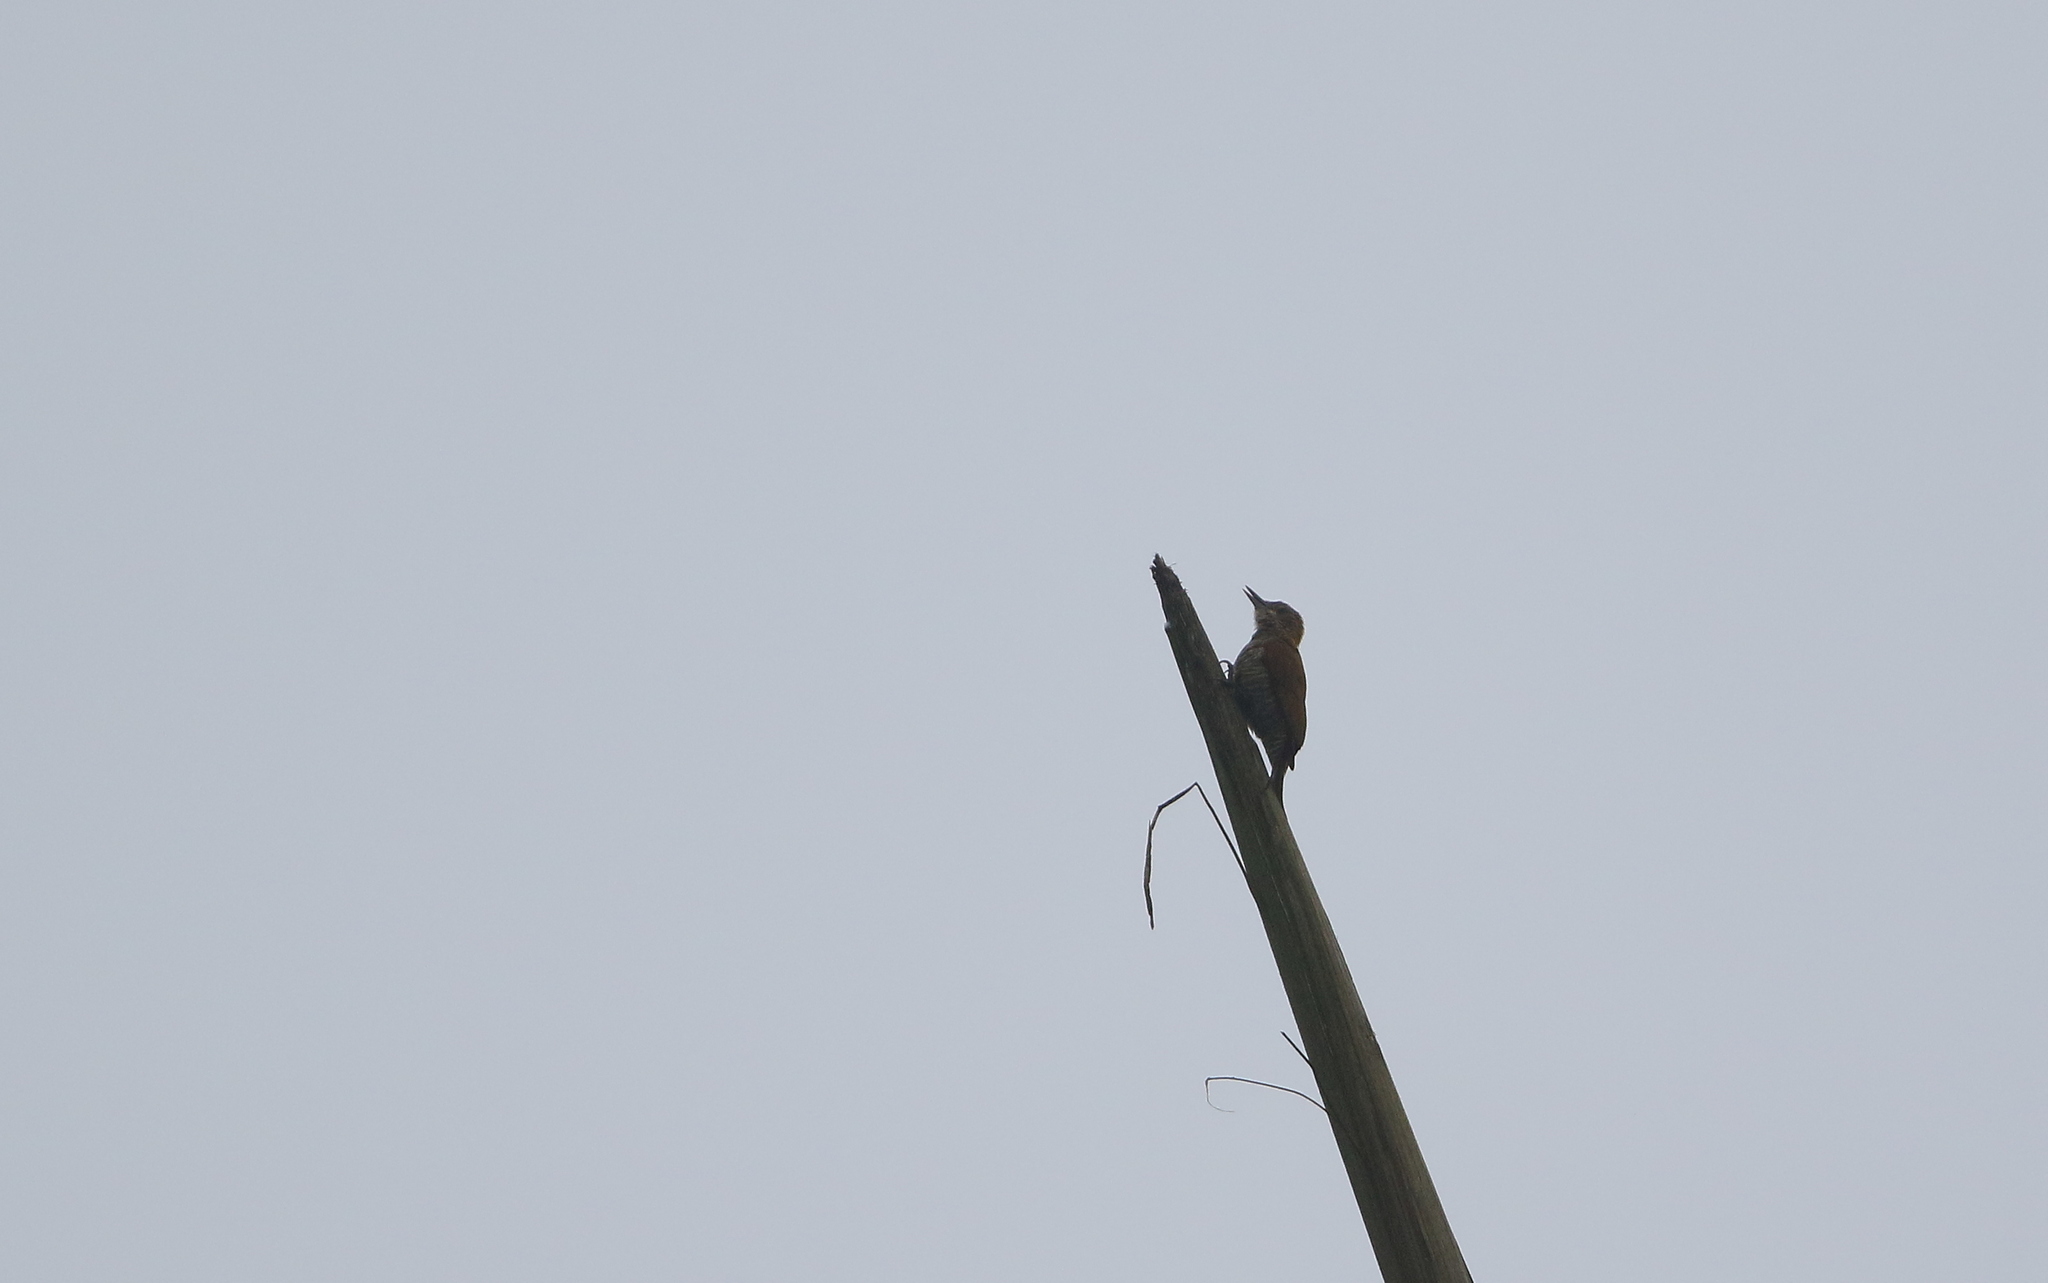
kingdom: Animalia
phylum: Chordata
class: Aves
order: Piciformes
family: Picidae
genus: Veniliornis
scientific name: Veniliornis kirkii
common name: Red-rumped woodpecker
